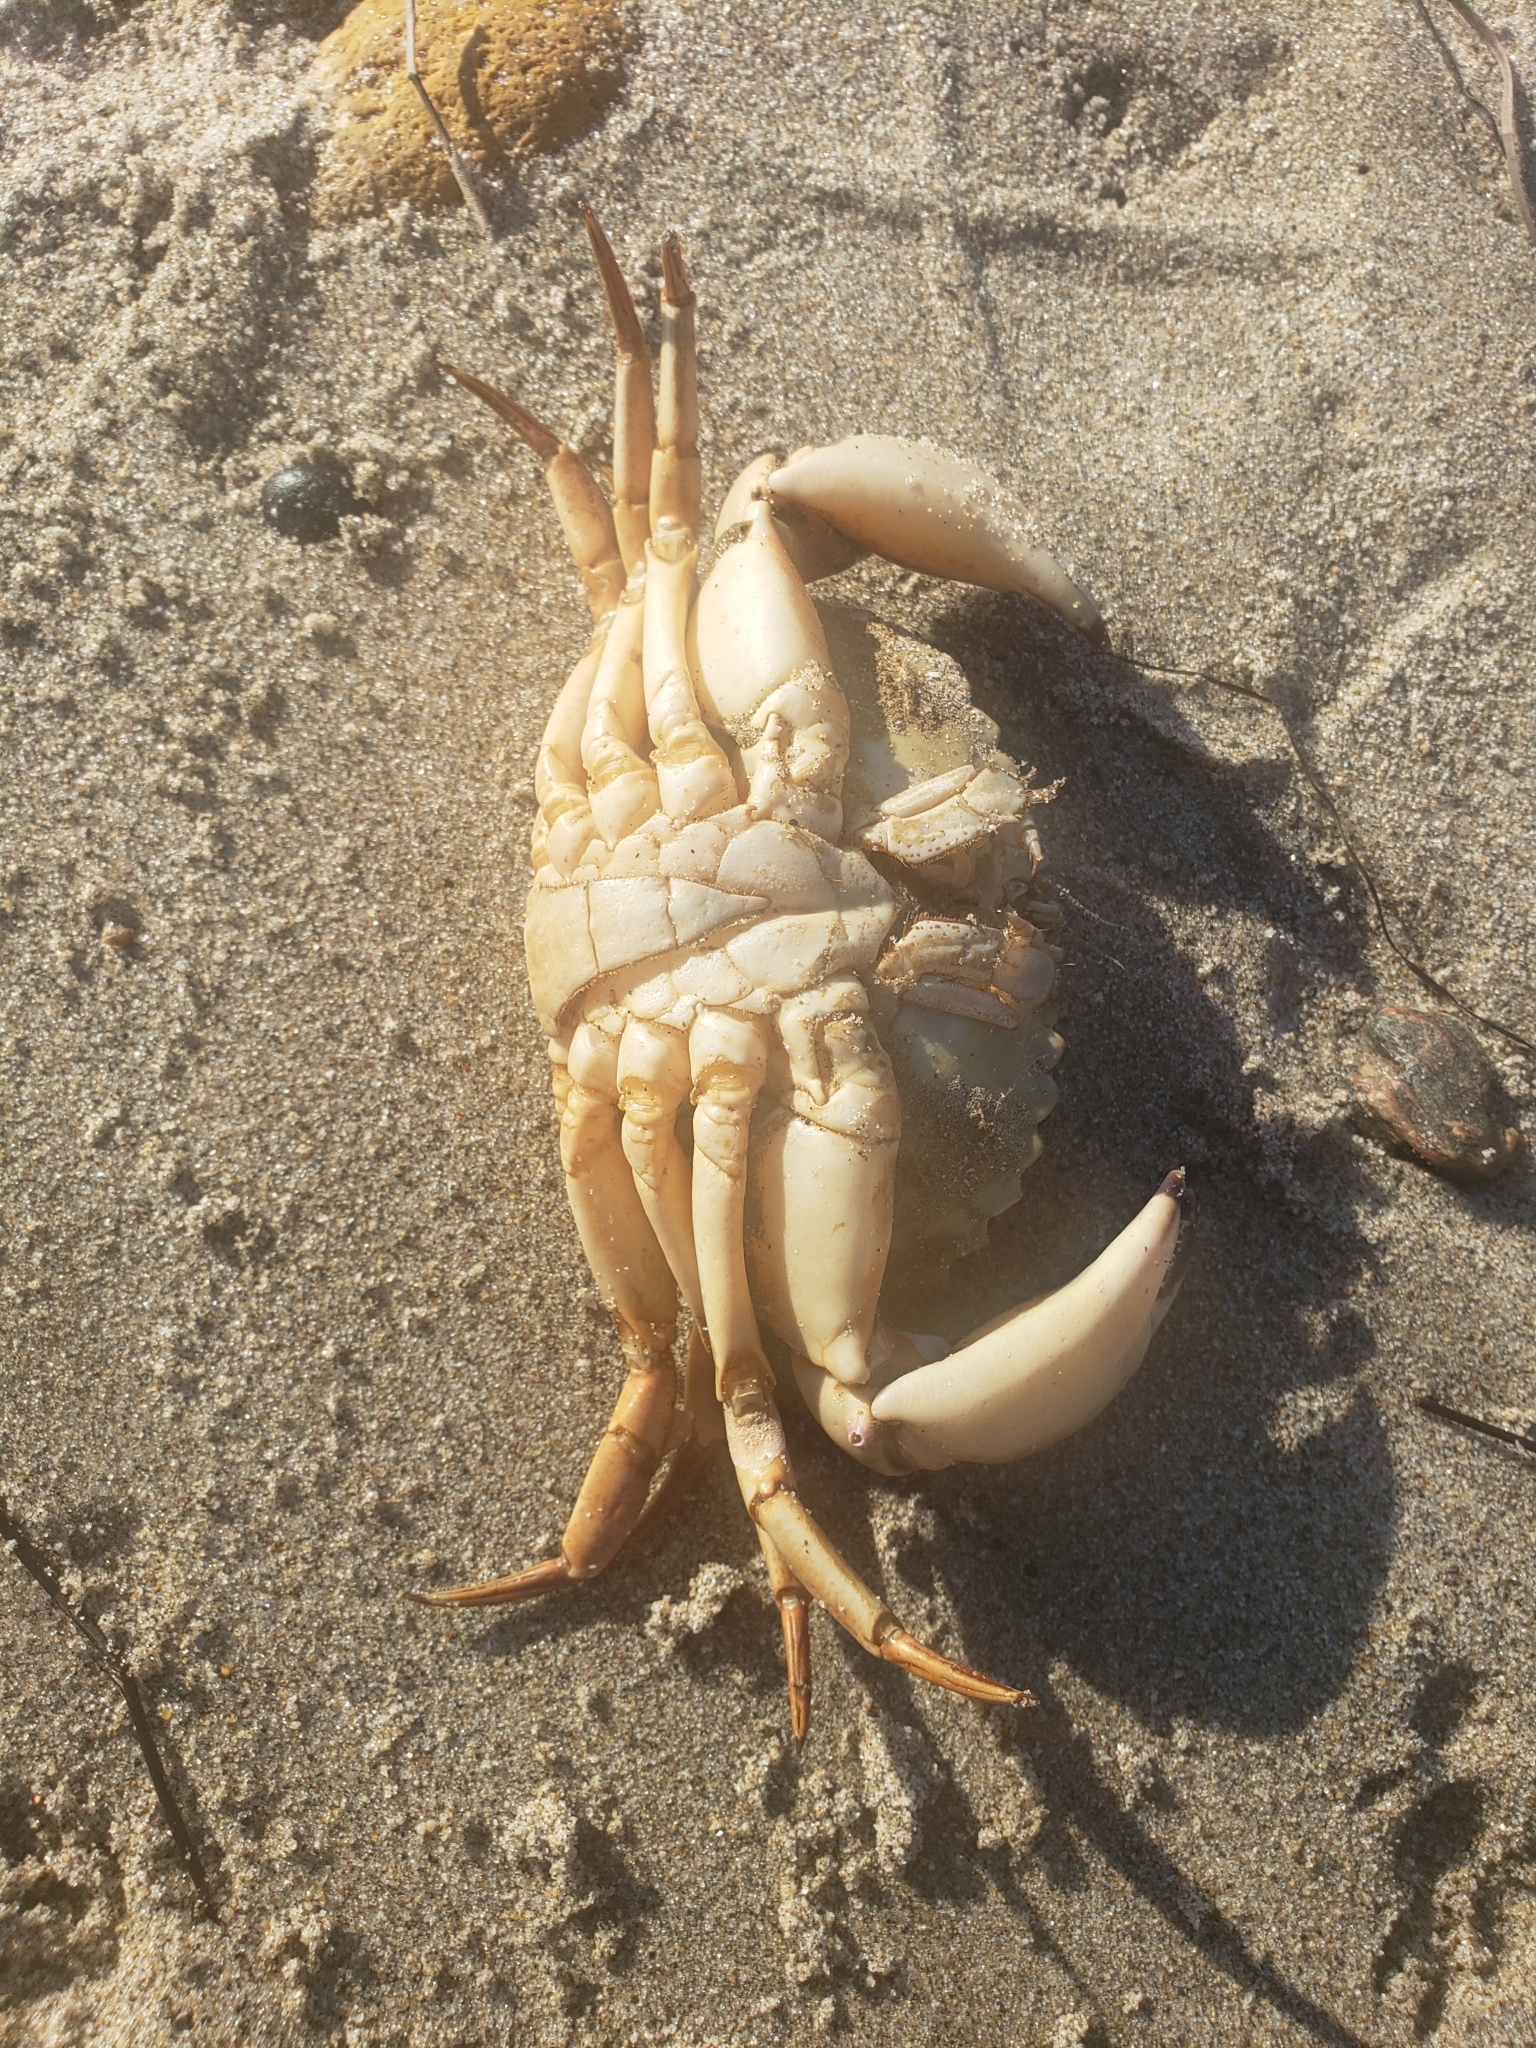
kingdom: Animalia
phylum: Arthropoda
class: Malacostraca
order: Decapoda
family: Cancridae
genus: Metacarcinus
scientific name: Metacarcinus anthonyi
